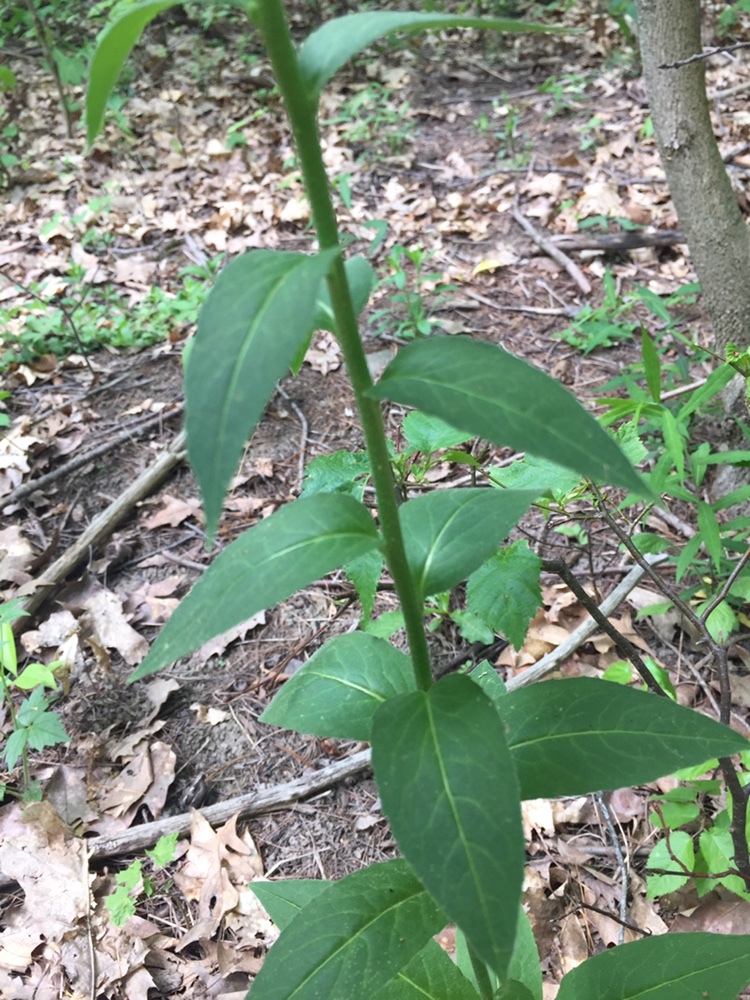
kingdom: Plantae
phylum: Tracheophyta
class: Magnoliopsida
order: Brassicales
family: Brassicaceae
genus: Hesperis
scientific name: Hesperis matronalis
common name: Dame's-violet
